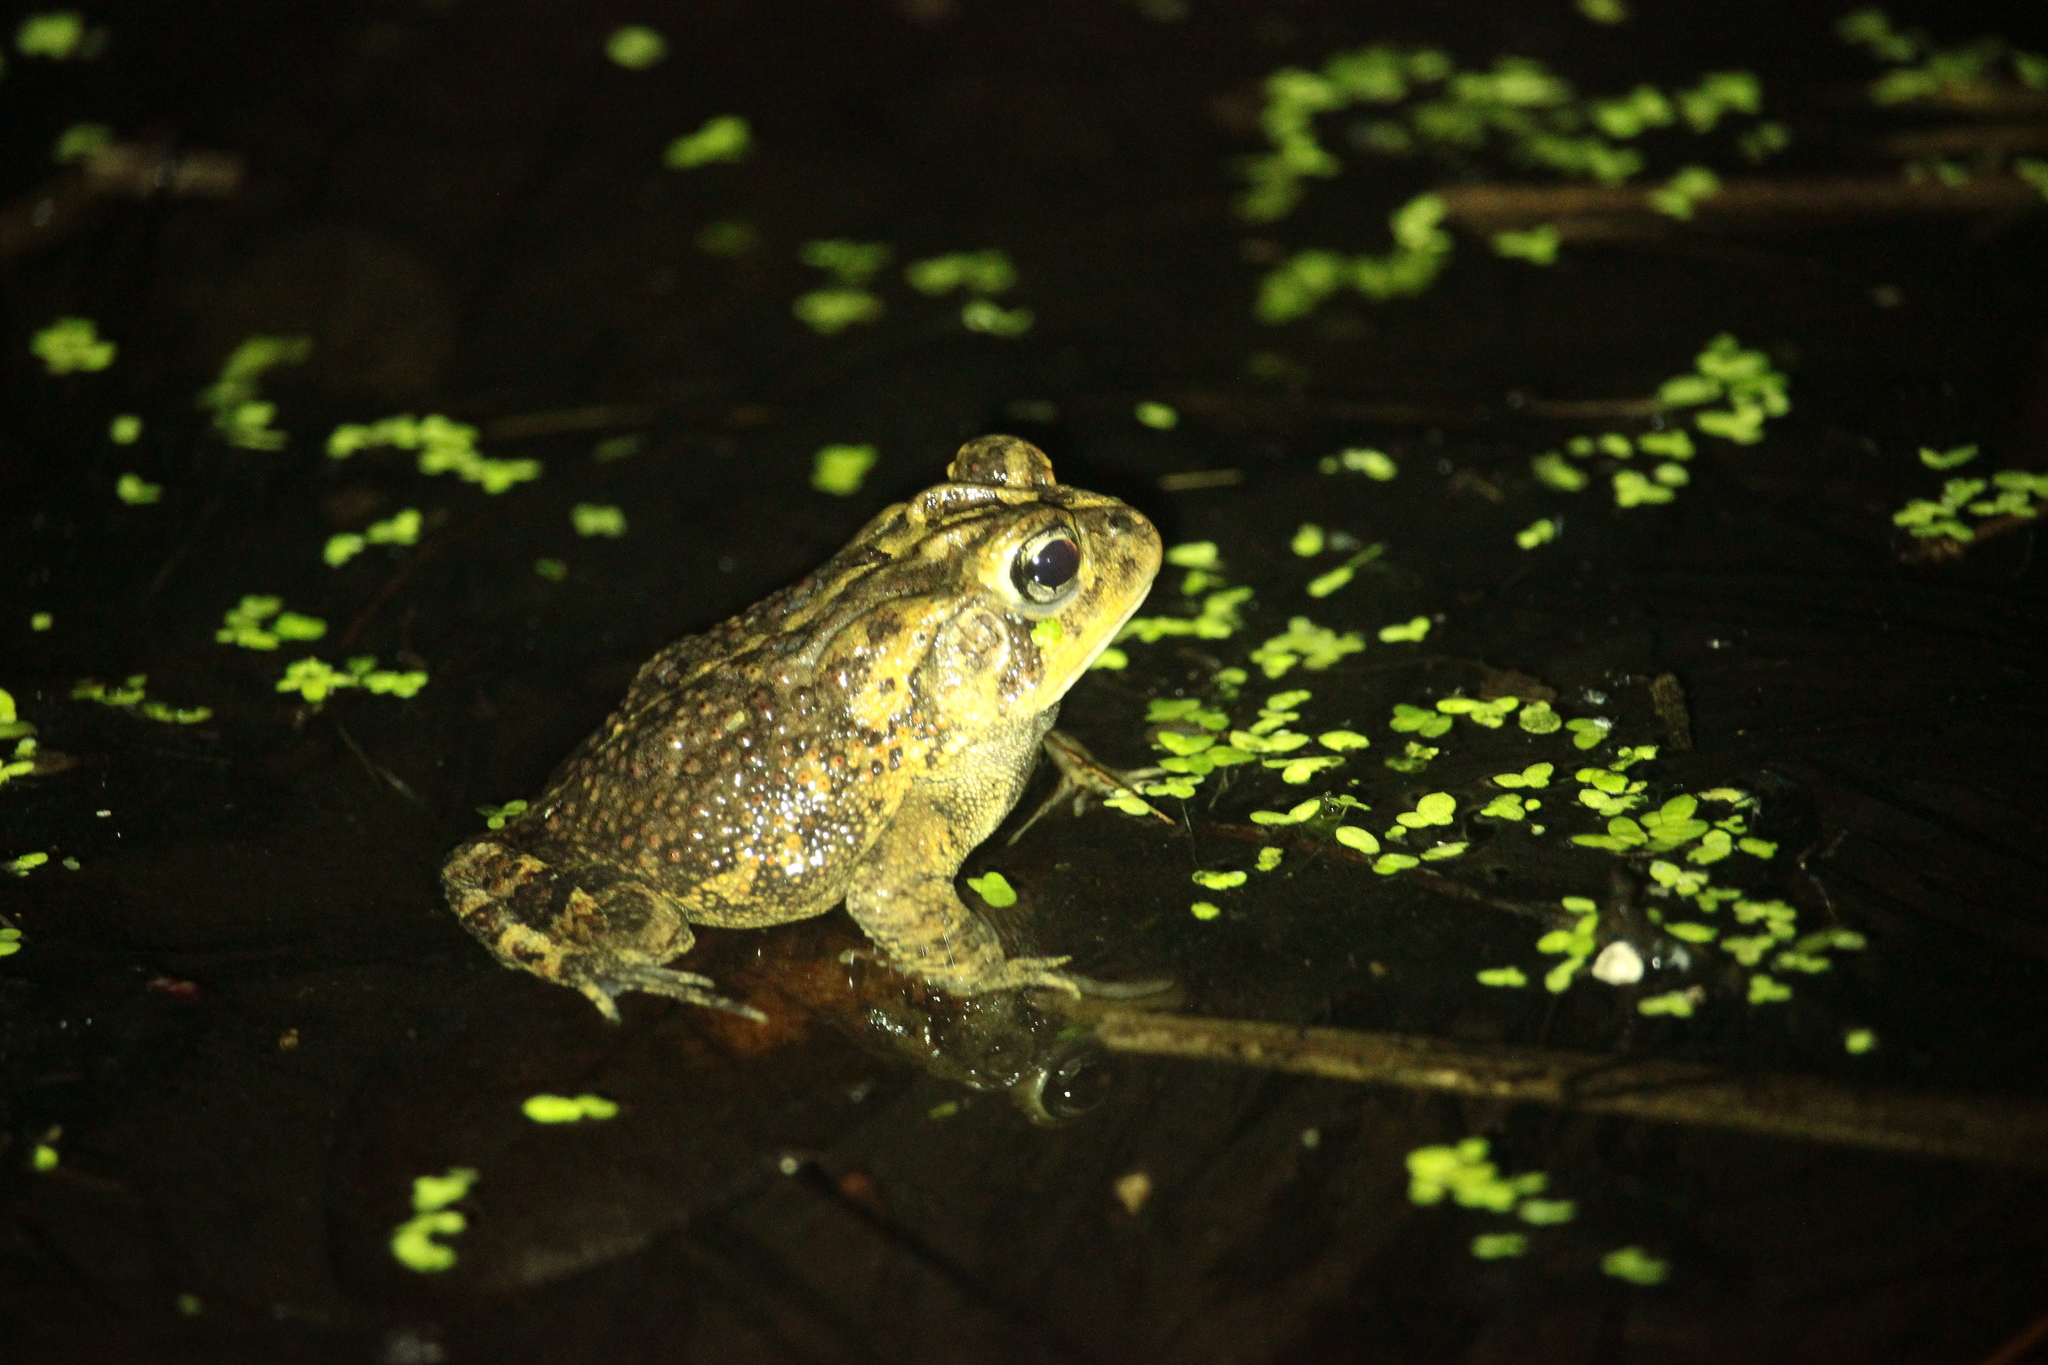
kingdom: Animalia
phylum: Chordata
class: Amphibia
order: Anura
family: Bufonidae
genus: Anaxyrus
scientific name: Anaxyrus terrestris
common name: Southern toad
